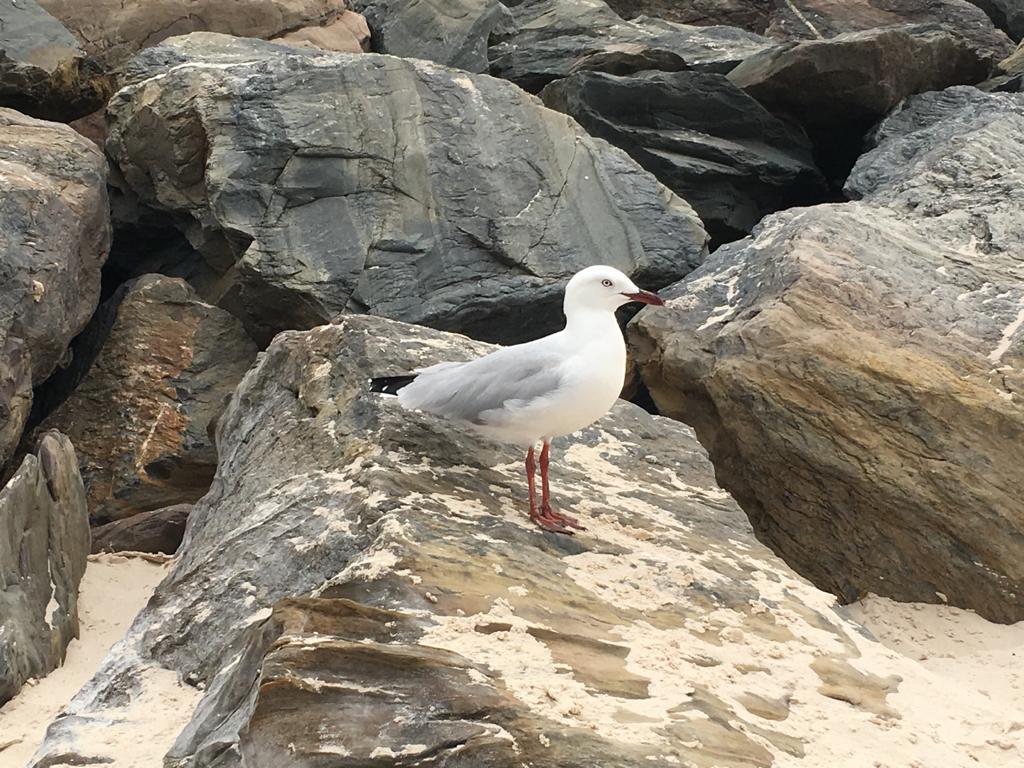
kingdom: Animalia
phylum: Chordata
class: Aves
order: Charadriiformes
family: Laridae
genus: Chroicocephalus
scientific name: Chroicocephalus novaehollandiae
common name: Silver gull
